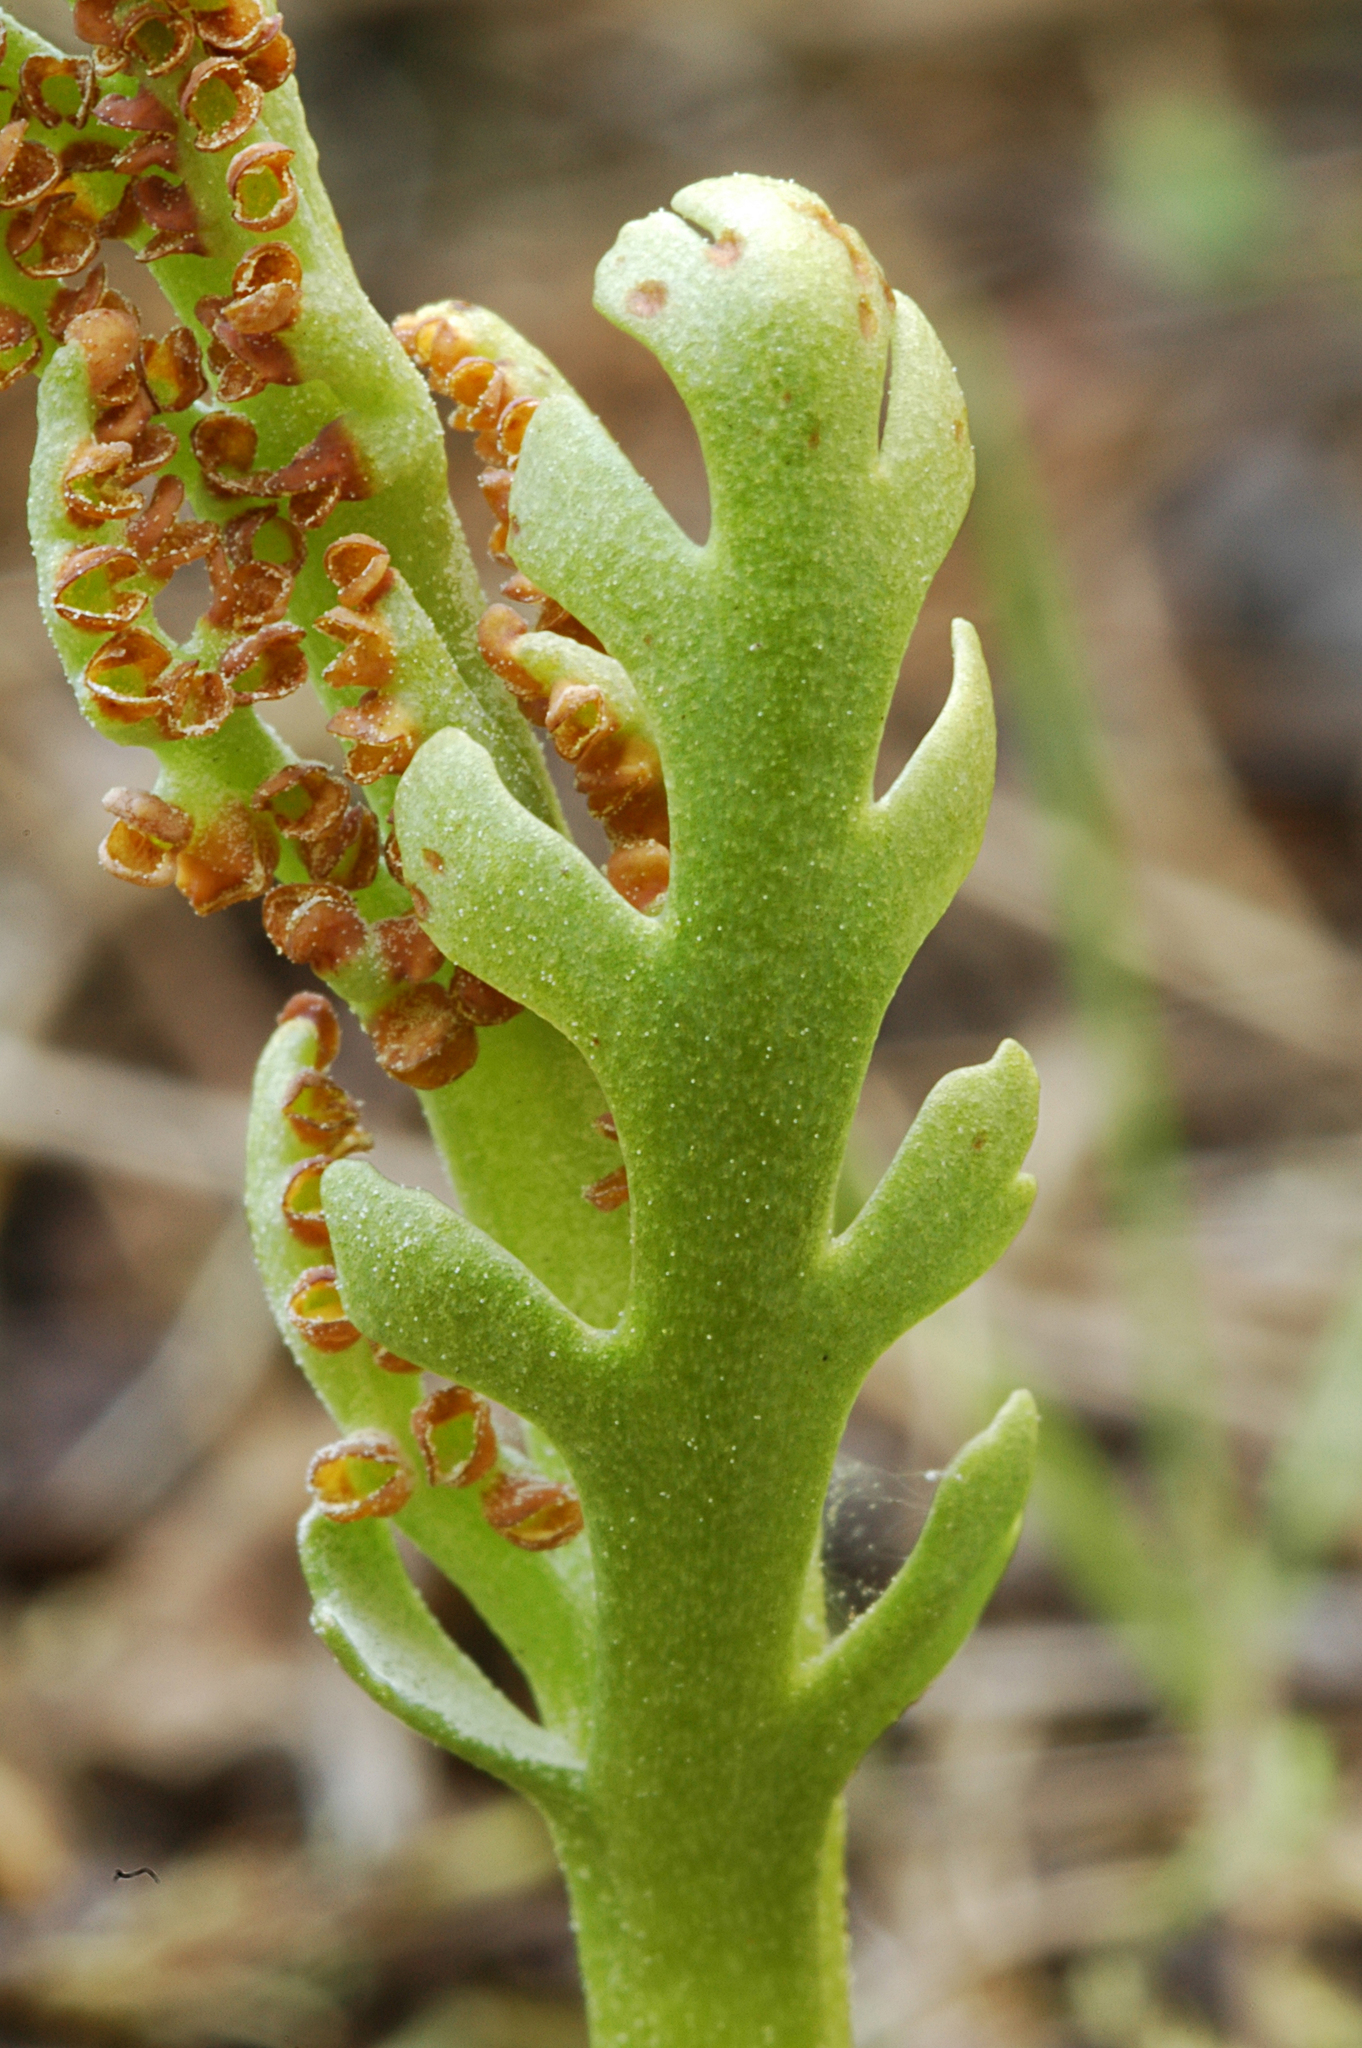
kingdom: Plantae
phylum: Tracheophyta
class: Polypodiopsida
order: Ophioglossales
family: Ophioglossaceae
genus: Botrychium
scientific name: Botrychium lineare
